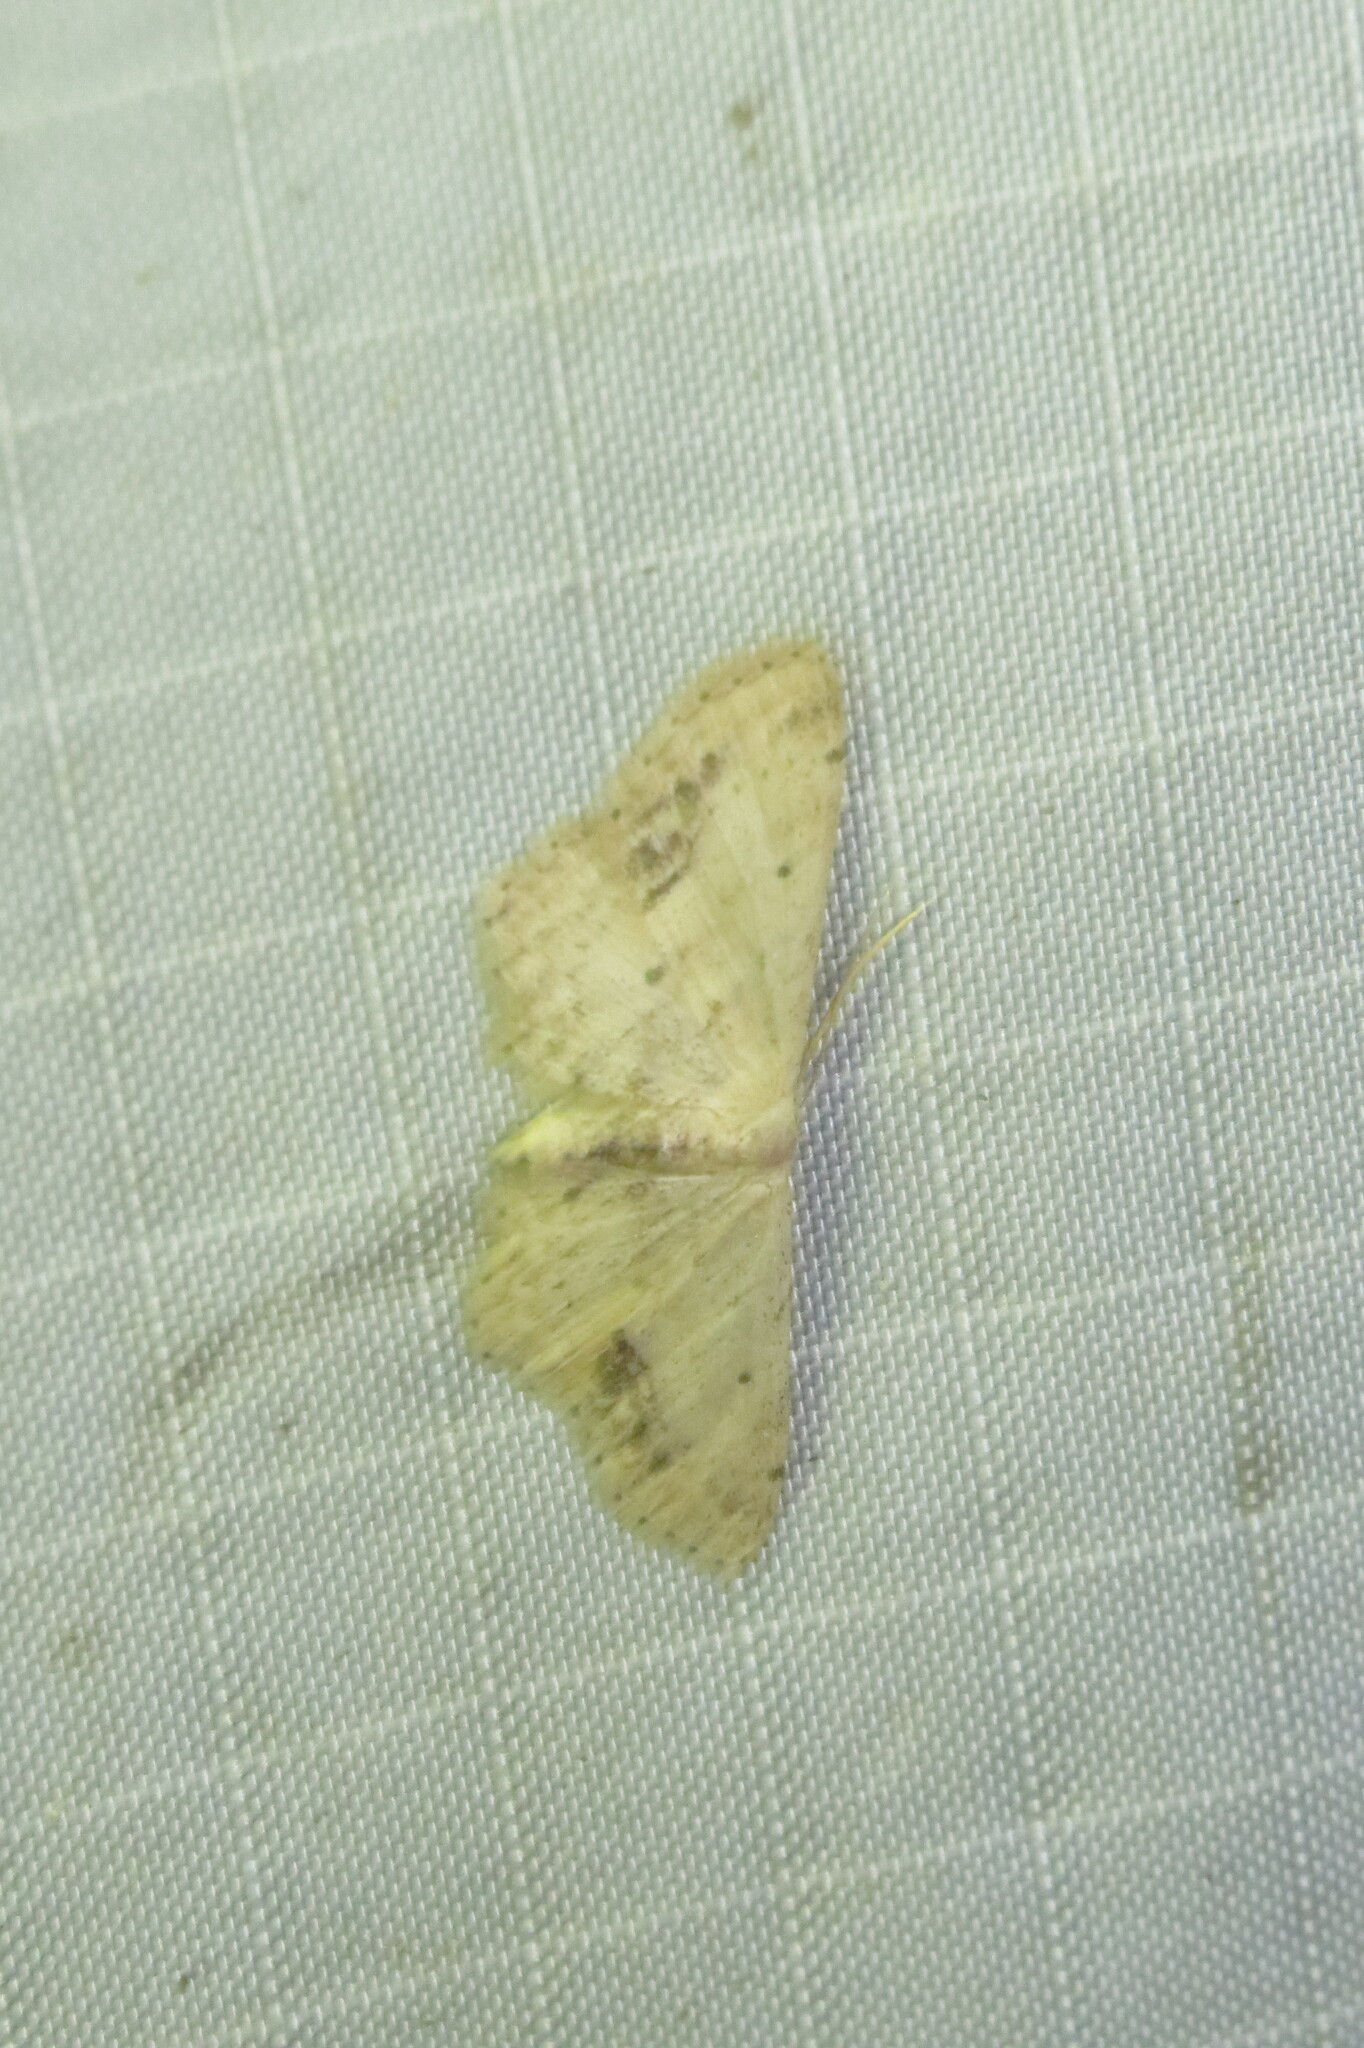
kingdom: Animalia
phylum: Arthropoda
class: Insecta
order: Lepidoptera
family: Geometridae
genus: Idaea
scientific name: Idaea dimidiata
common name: Single-dotted wave
